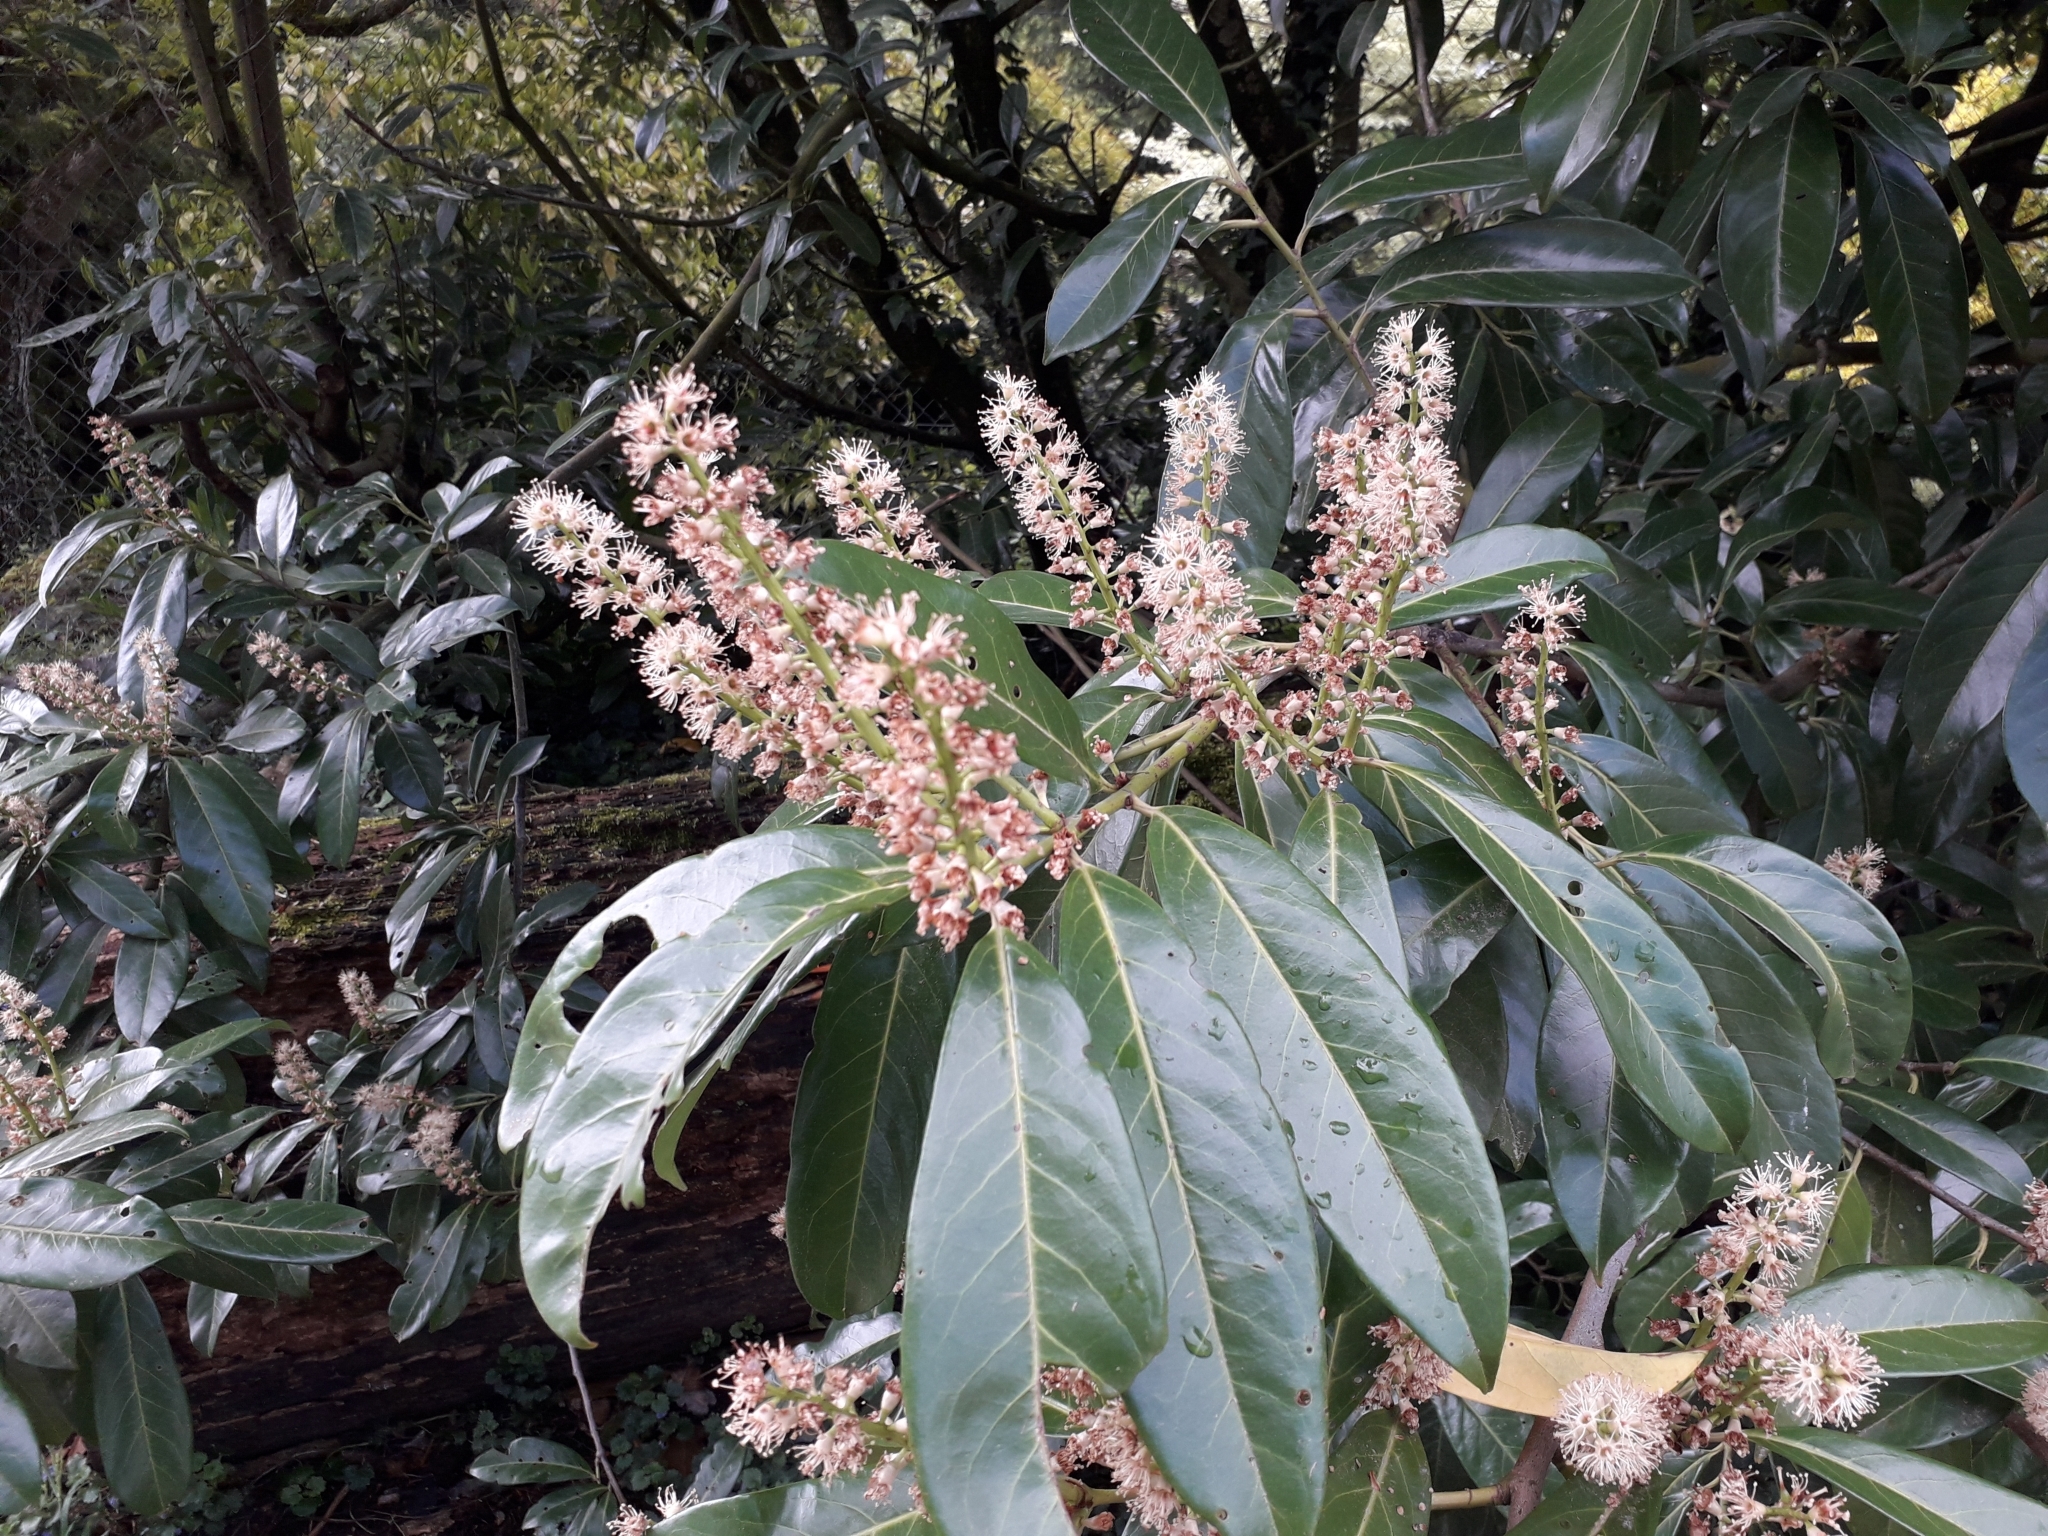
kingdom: Plantae
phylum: Tracheophyta
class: Magnoliopsida
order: Rosales
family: Rosaceae
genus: Prunus
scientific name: Prunus laurocerasus
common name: Cherry laurel
